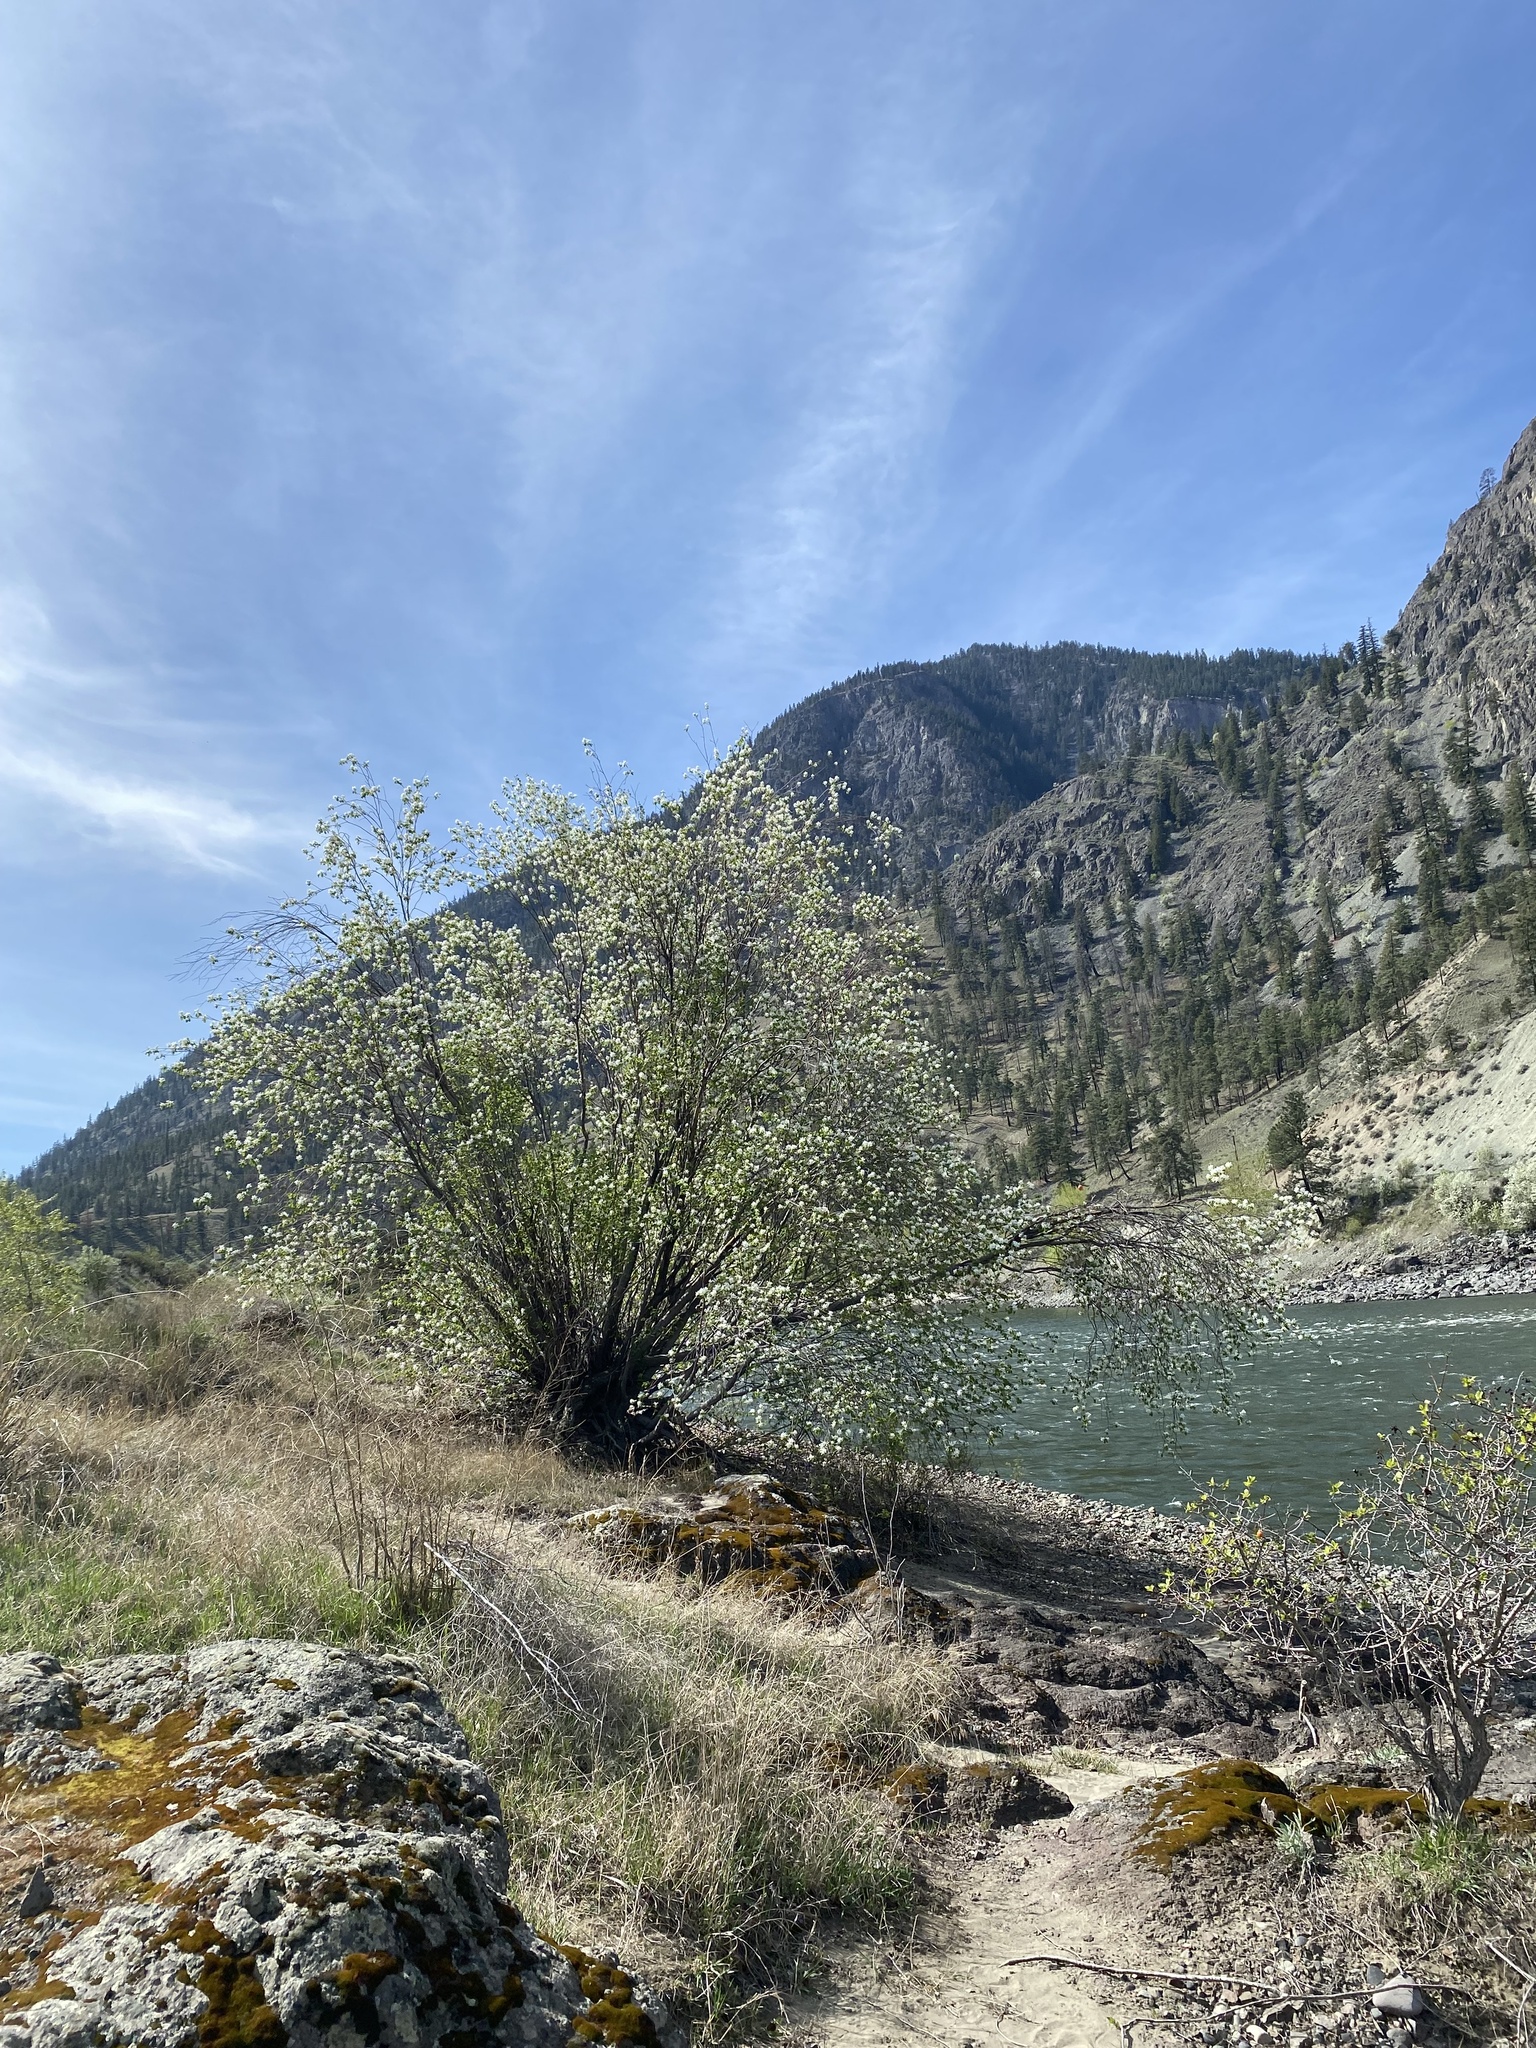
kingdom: Plantae
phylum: Tracheophyta
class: Magnoliopsida
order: Rosales
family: Rosaceae
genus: Amelanchier
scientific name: Amelanchier alnifolia
